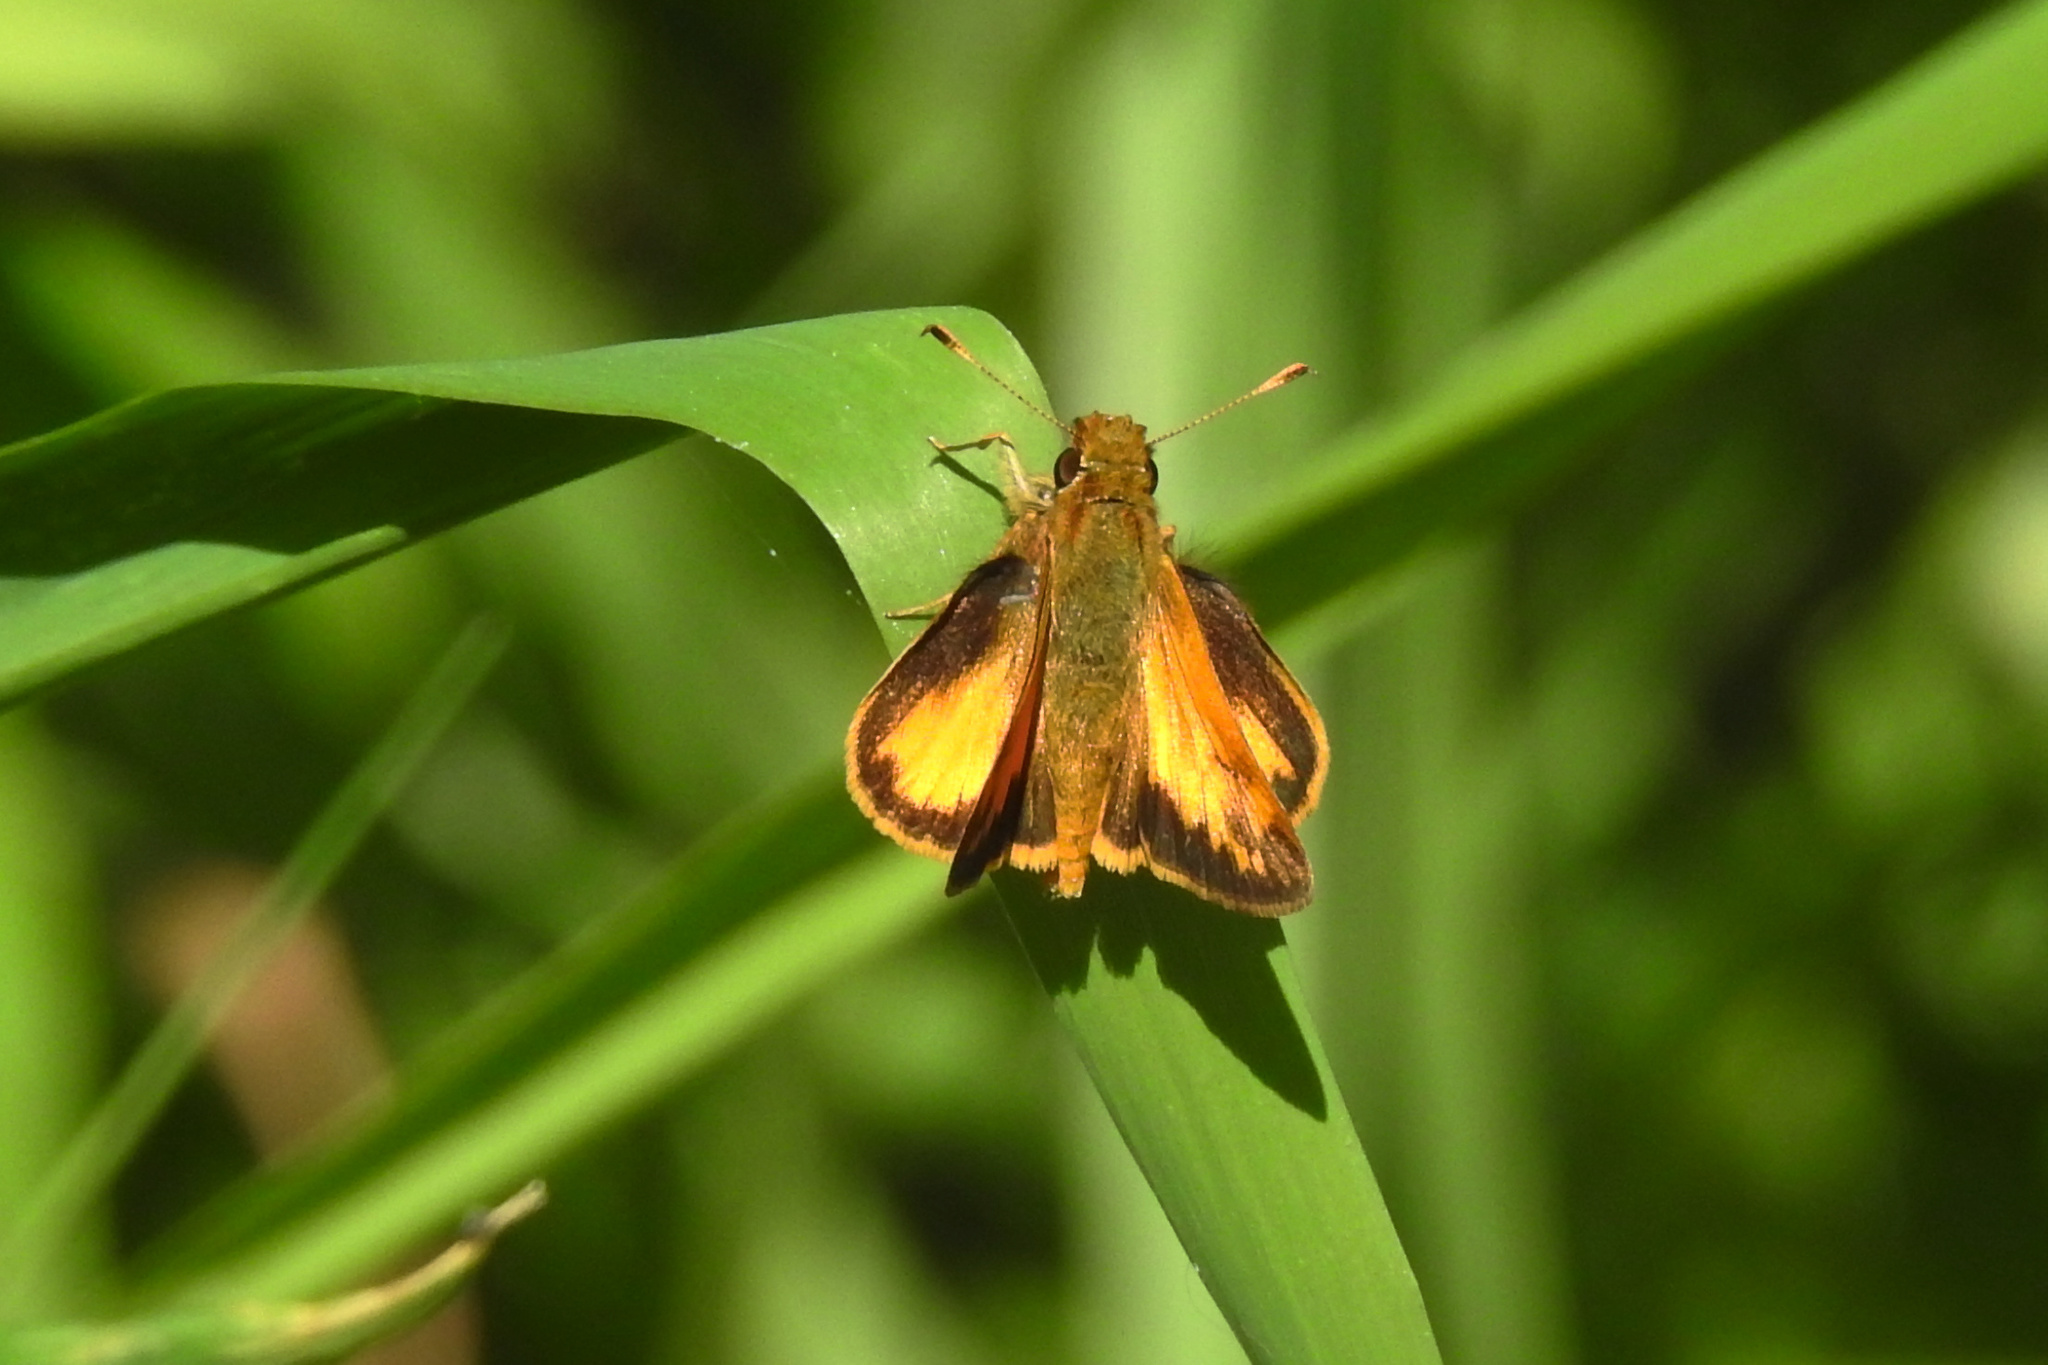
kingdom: Animalia
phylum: Arthropoda
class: Insecta
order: Lepidoptera
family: Hesperiidae
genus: Lon
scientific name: Lon zabulon
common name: Zabulon skipper
